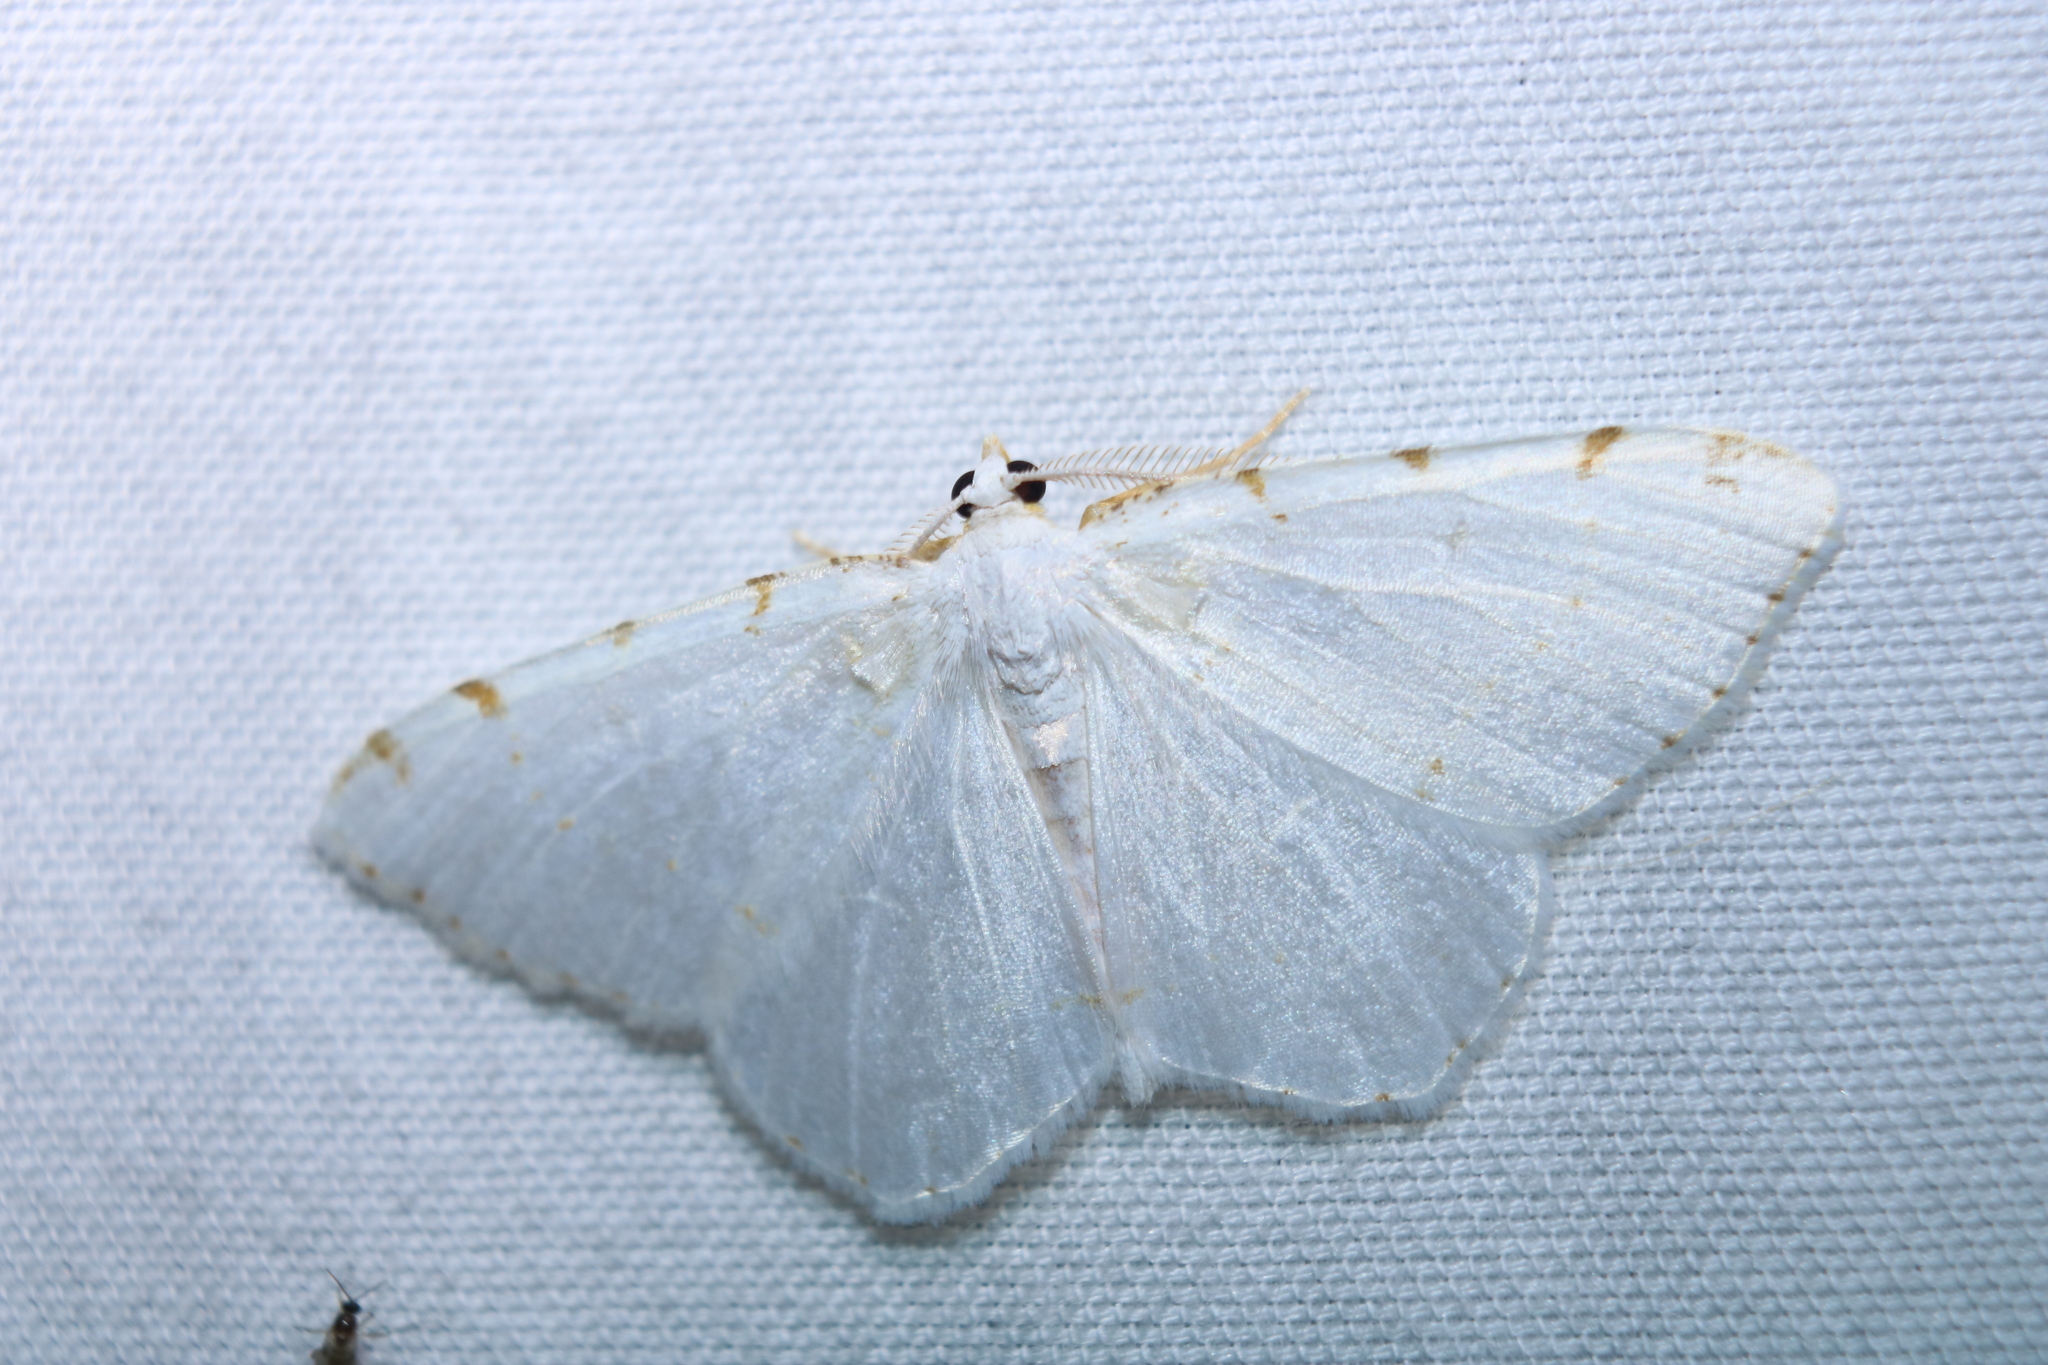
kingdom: Animalia
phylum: Arthropoda
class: Insecta
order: Lepidoptera
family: Geometridae
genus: Macaria
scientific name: Macaria pustularia
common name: Lesser maple spanworm moth
